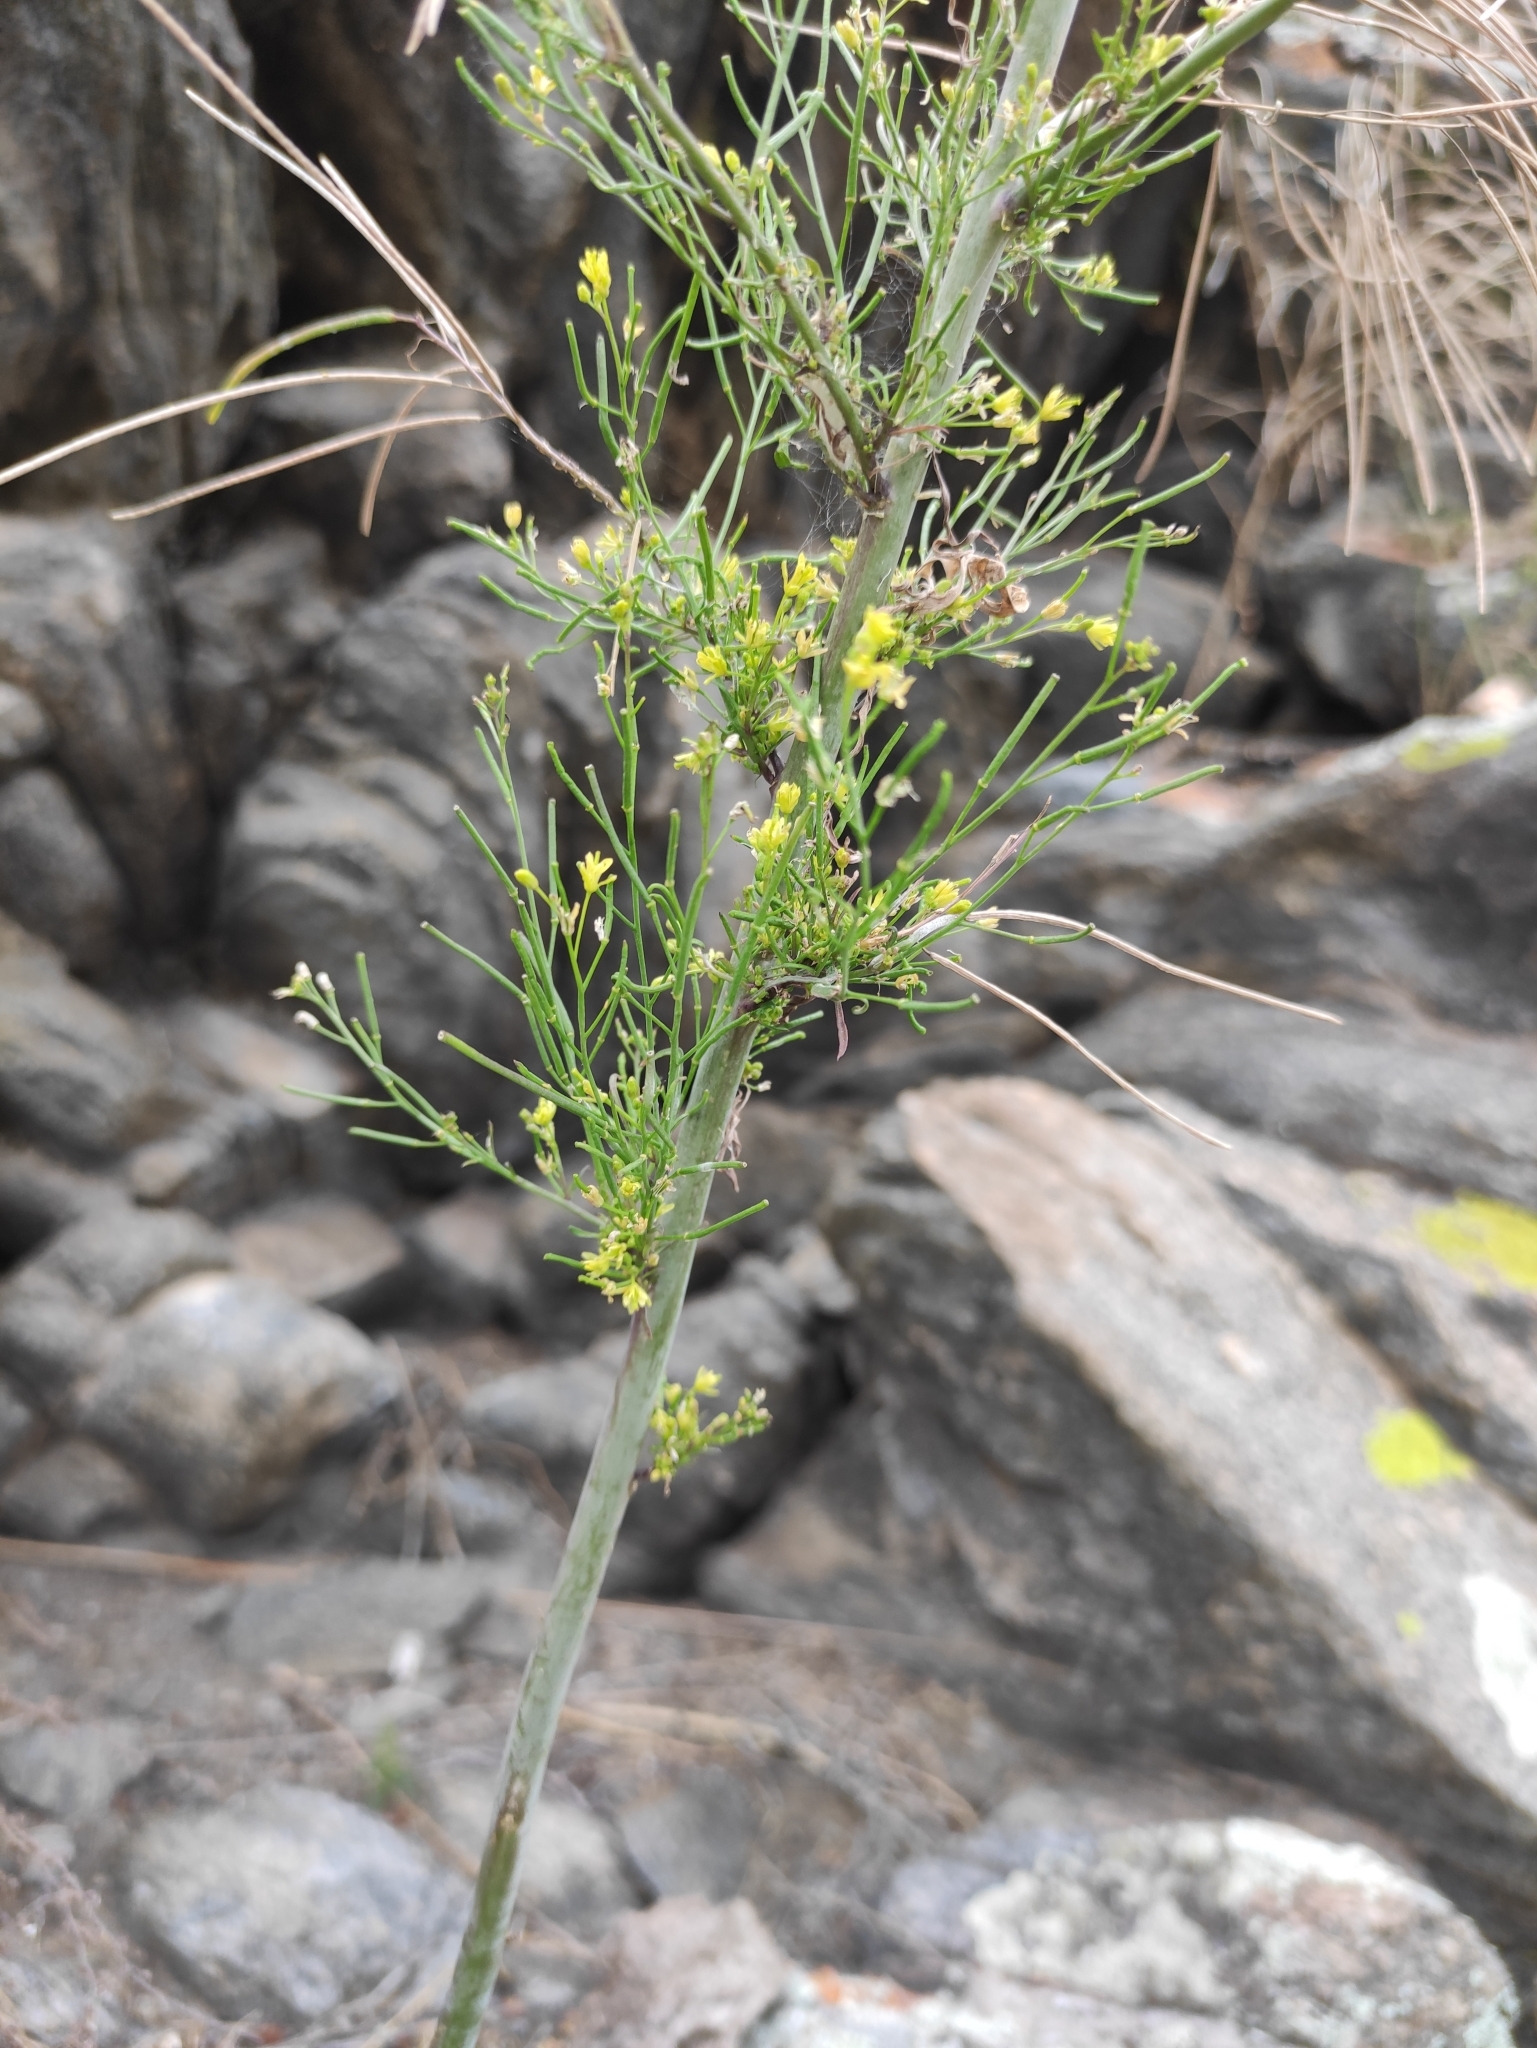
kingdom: Plantae
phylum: Tracheophyta
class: Magnoliopsida
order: Brassicales
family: Brassicaceae
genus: Erysimum
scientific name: Erysimum cheiranthoides
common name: Treacle mustard
